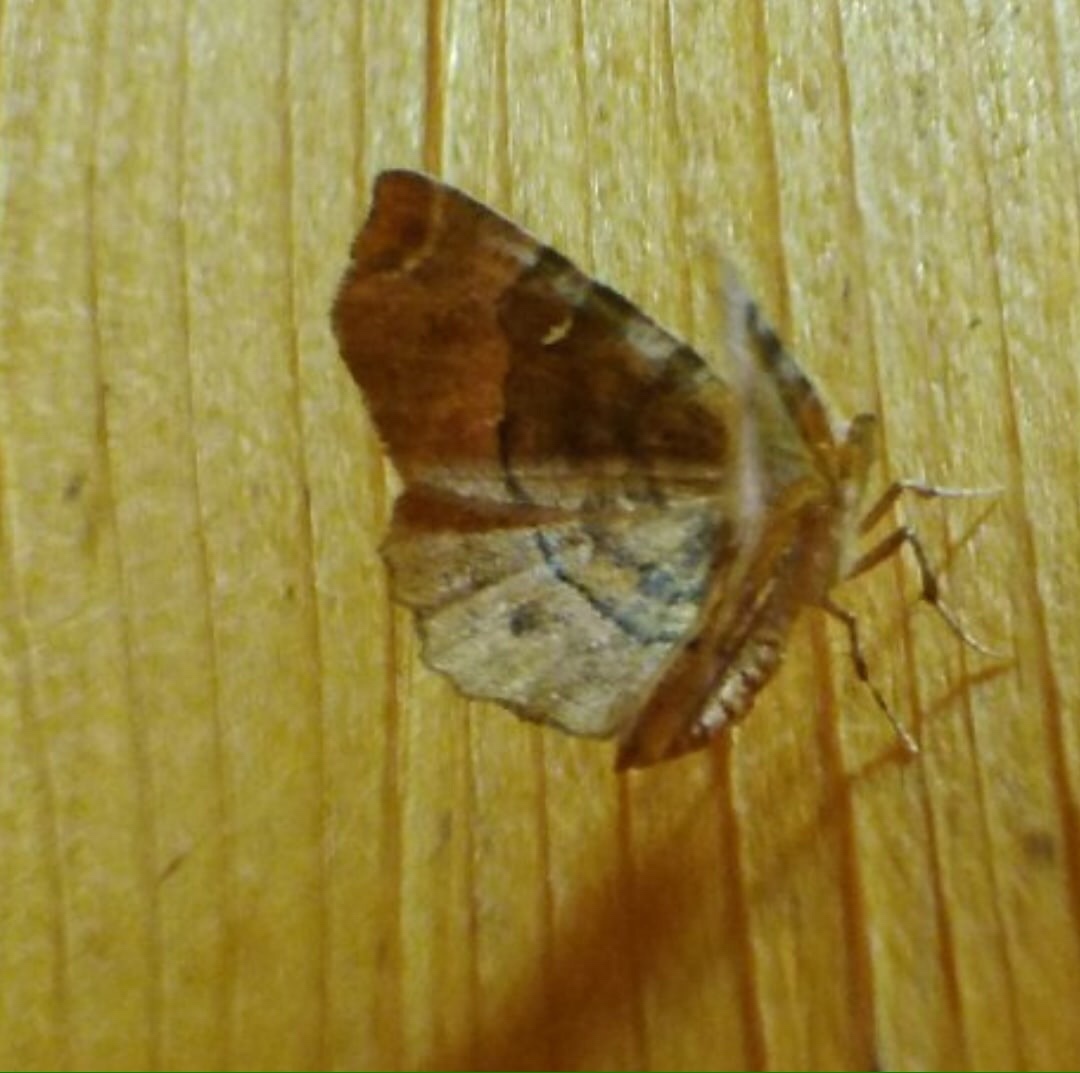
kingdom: Animalia
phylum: Arthropoda
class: Insecta
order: Lepidoptera
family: Geometridae
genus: Selenia
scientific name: Selenia tetralunaria
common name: Purple thorn
